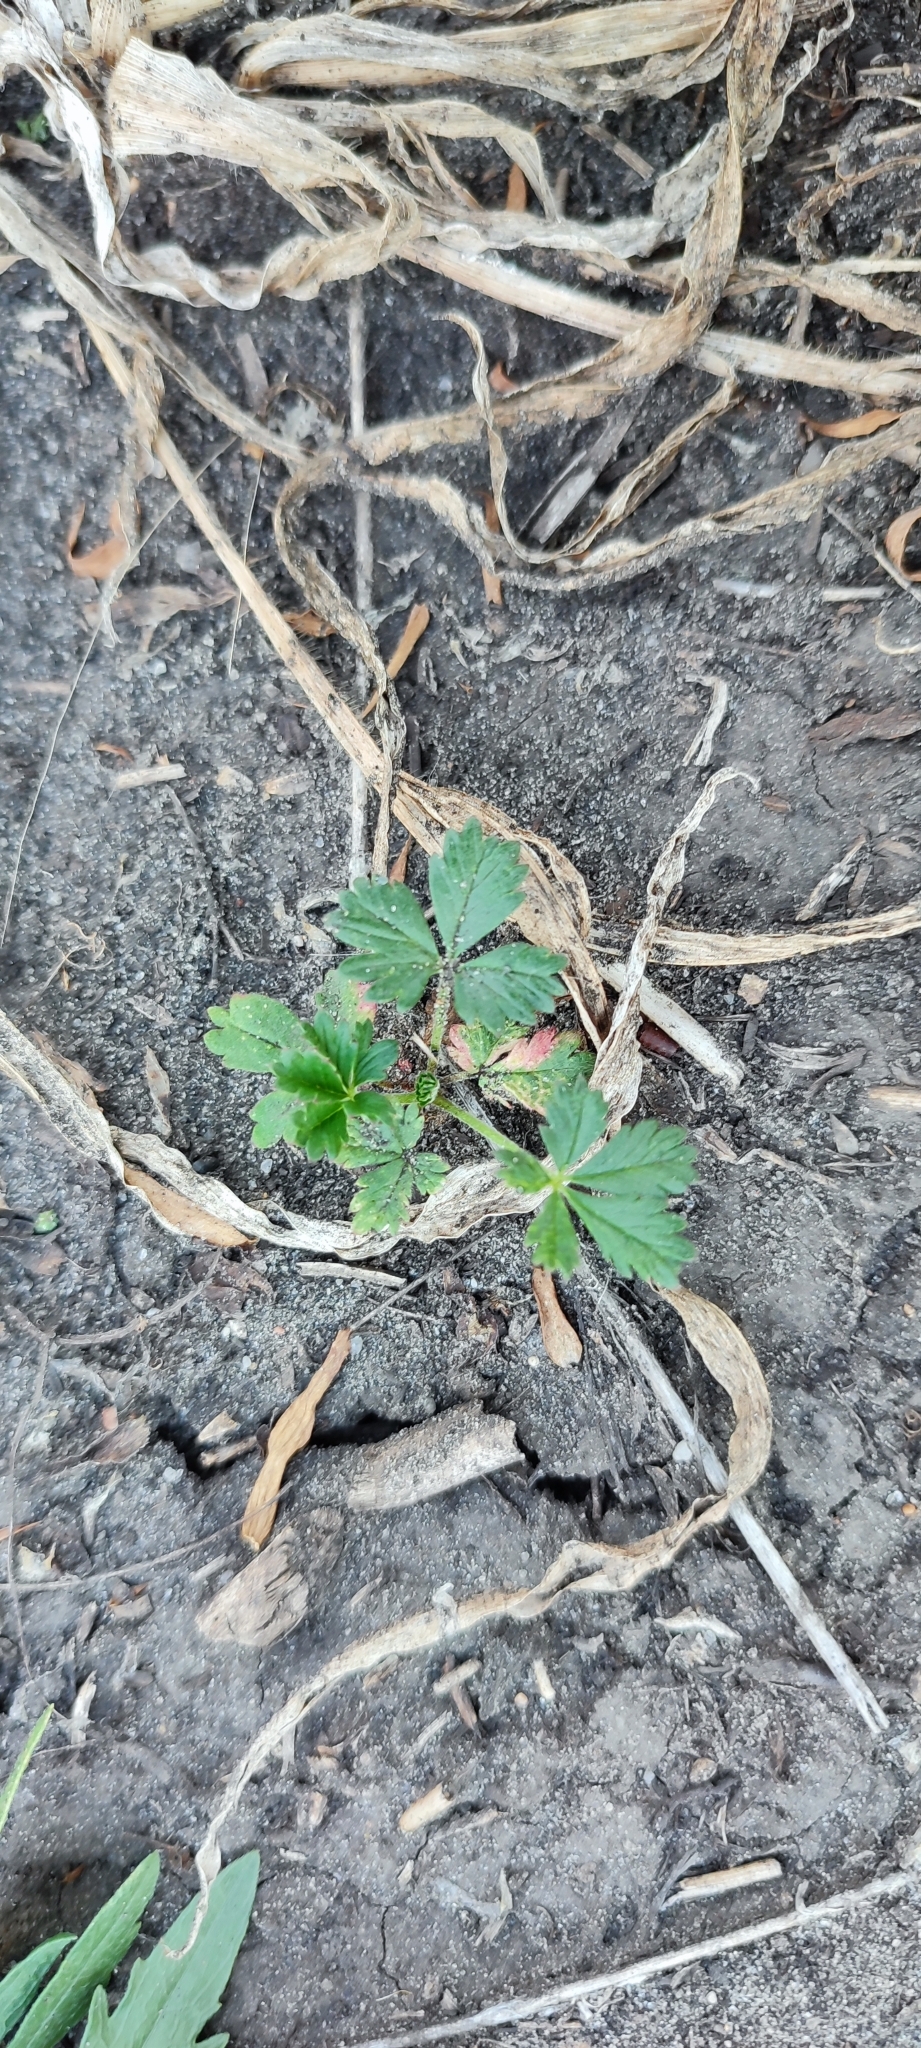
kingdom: Plantae
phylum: Tracheophyta
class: Magnoliopsida
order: Rosales
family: Rosaceae
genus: Potentilla
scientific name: Potentilla intermedia
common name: Downy cinquefoil
